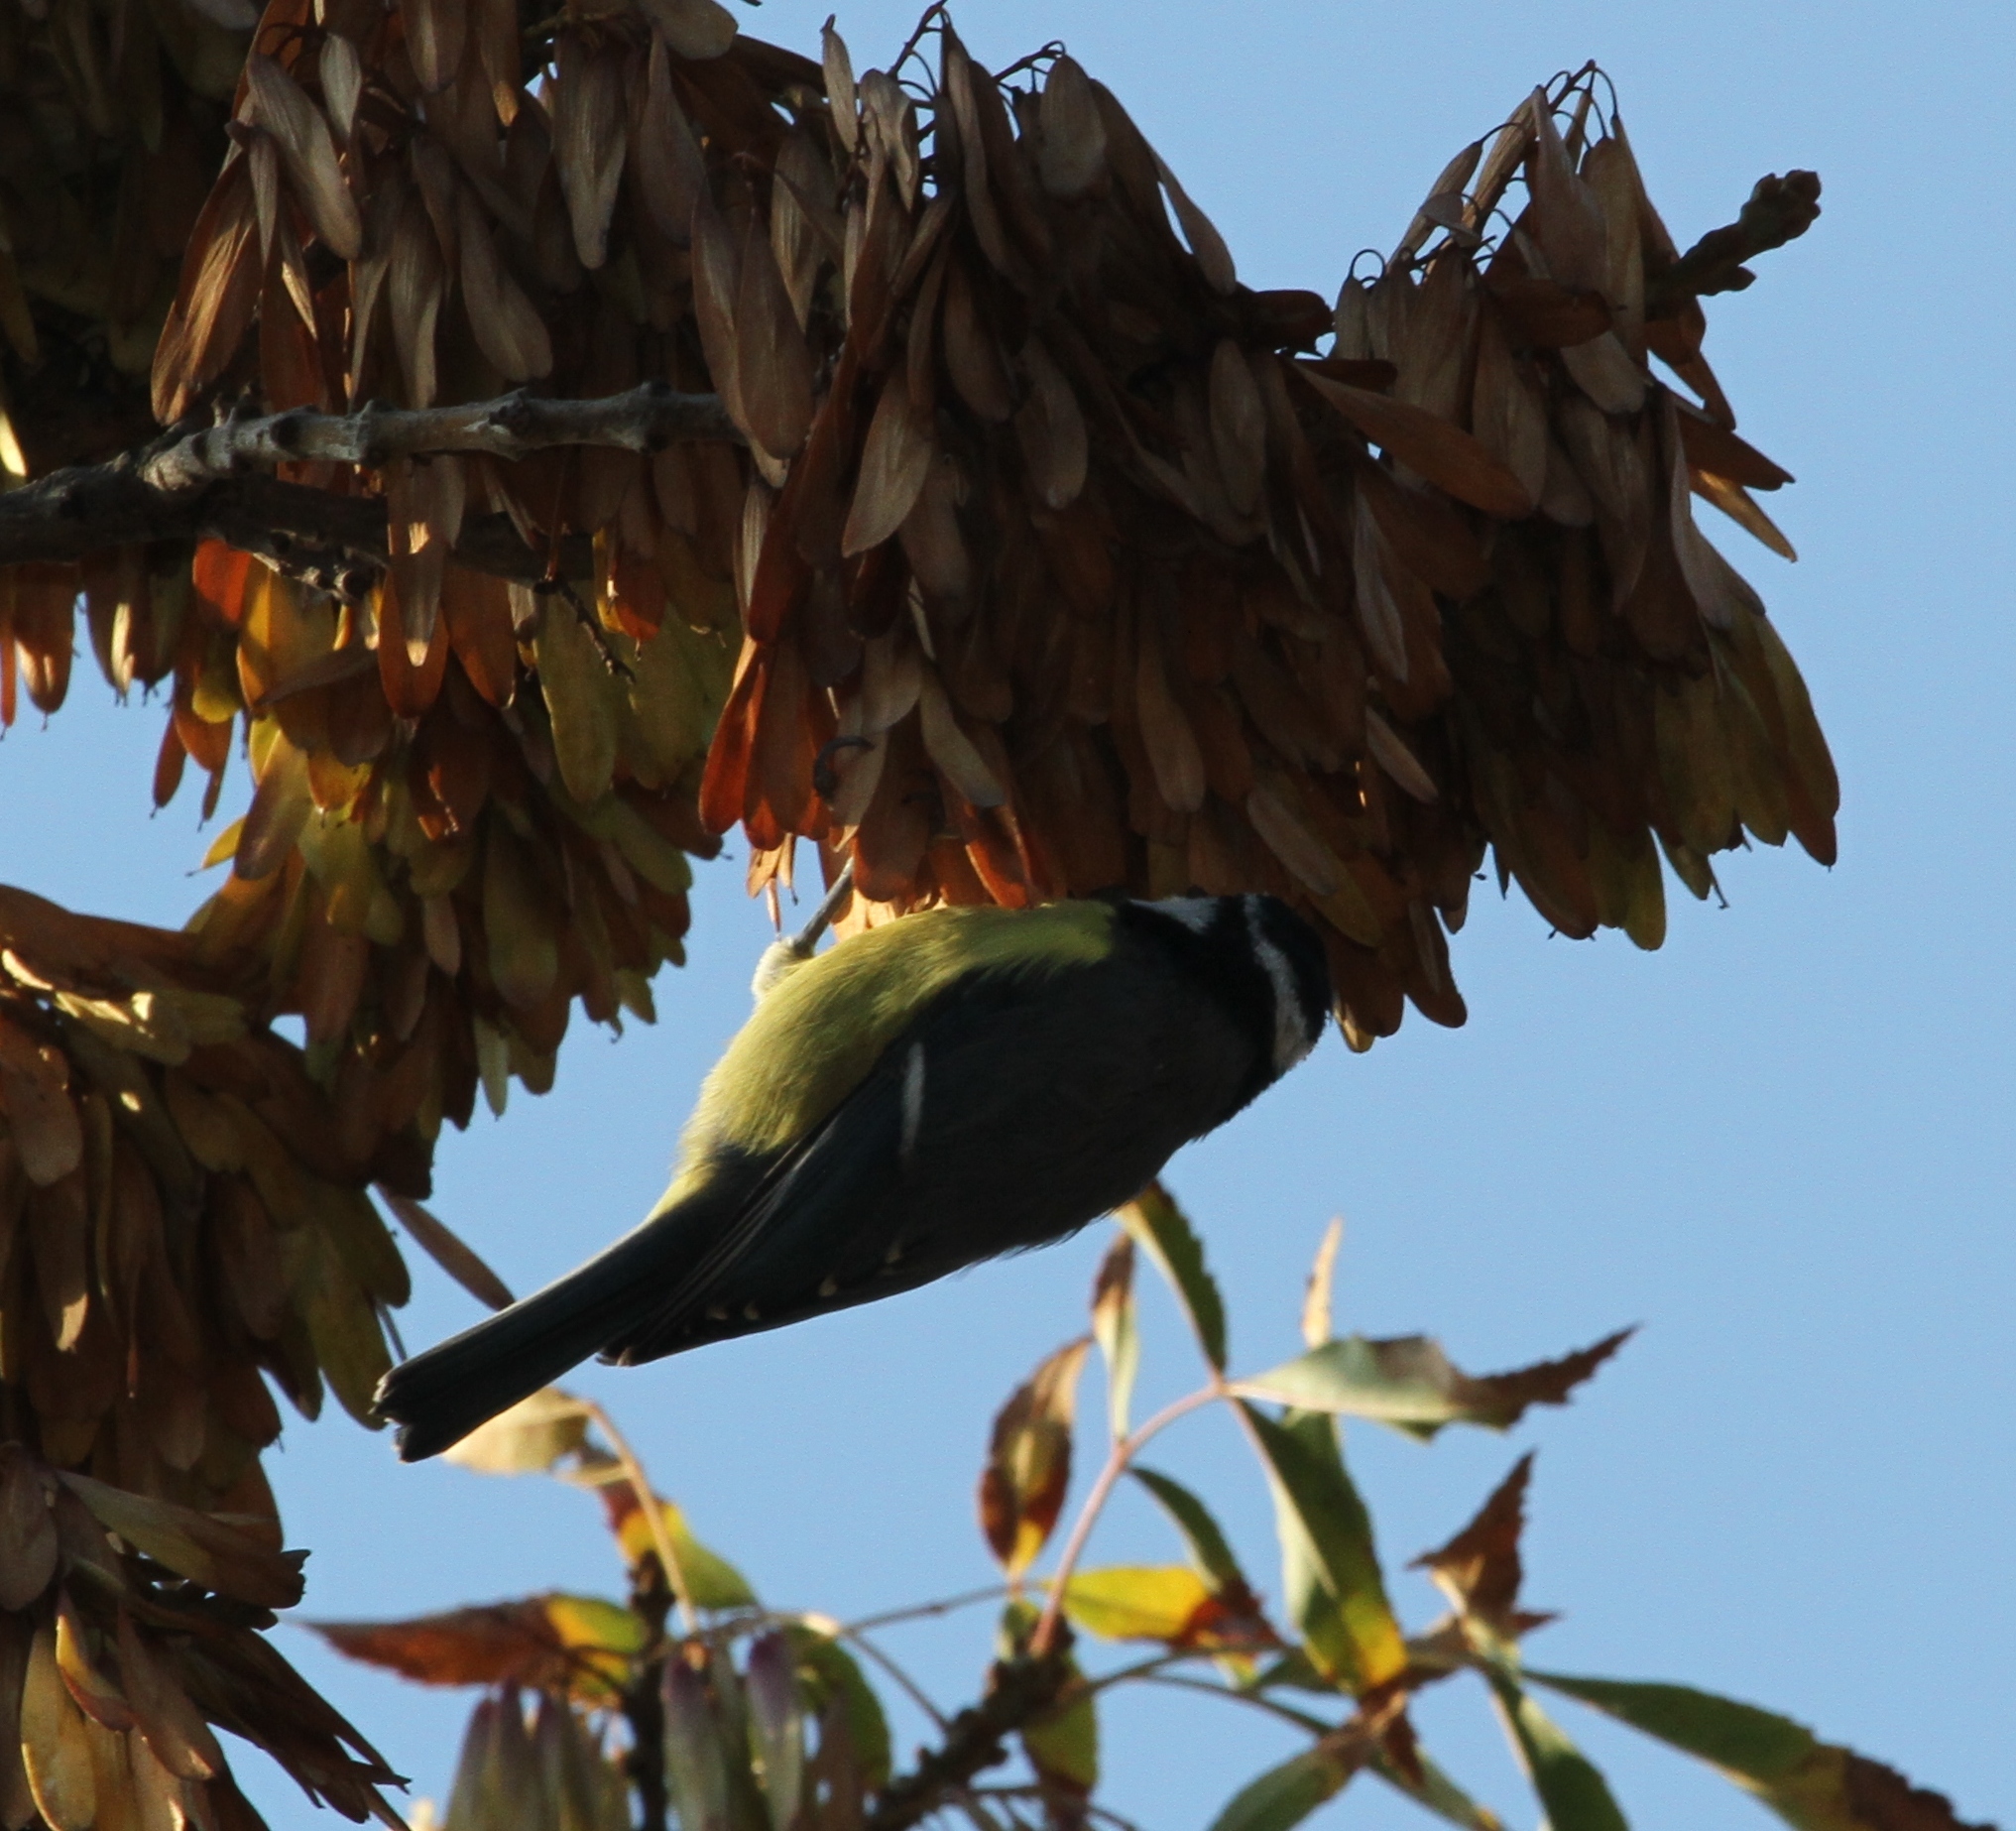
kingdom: Animalia
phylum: Chordata
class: Aves
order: Passeriformes
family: Paridae
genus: Cyanistes
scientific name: Cyanistes teneriffae
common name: African blue tit
